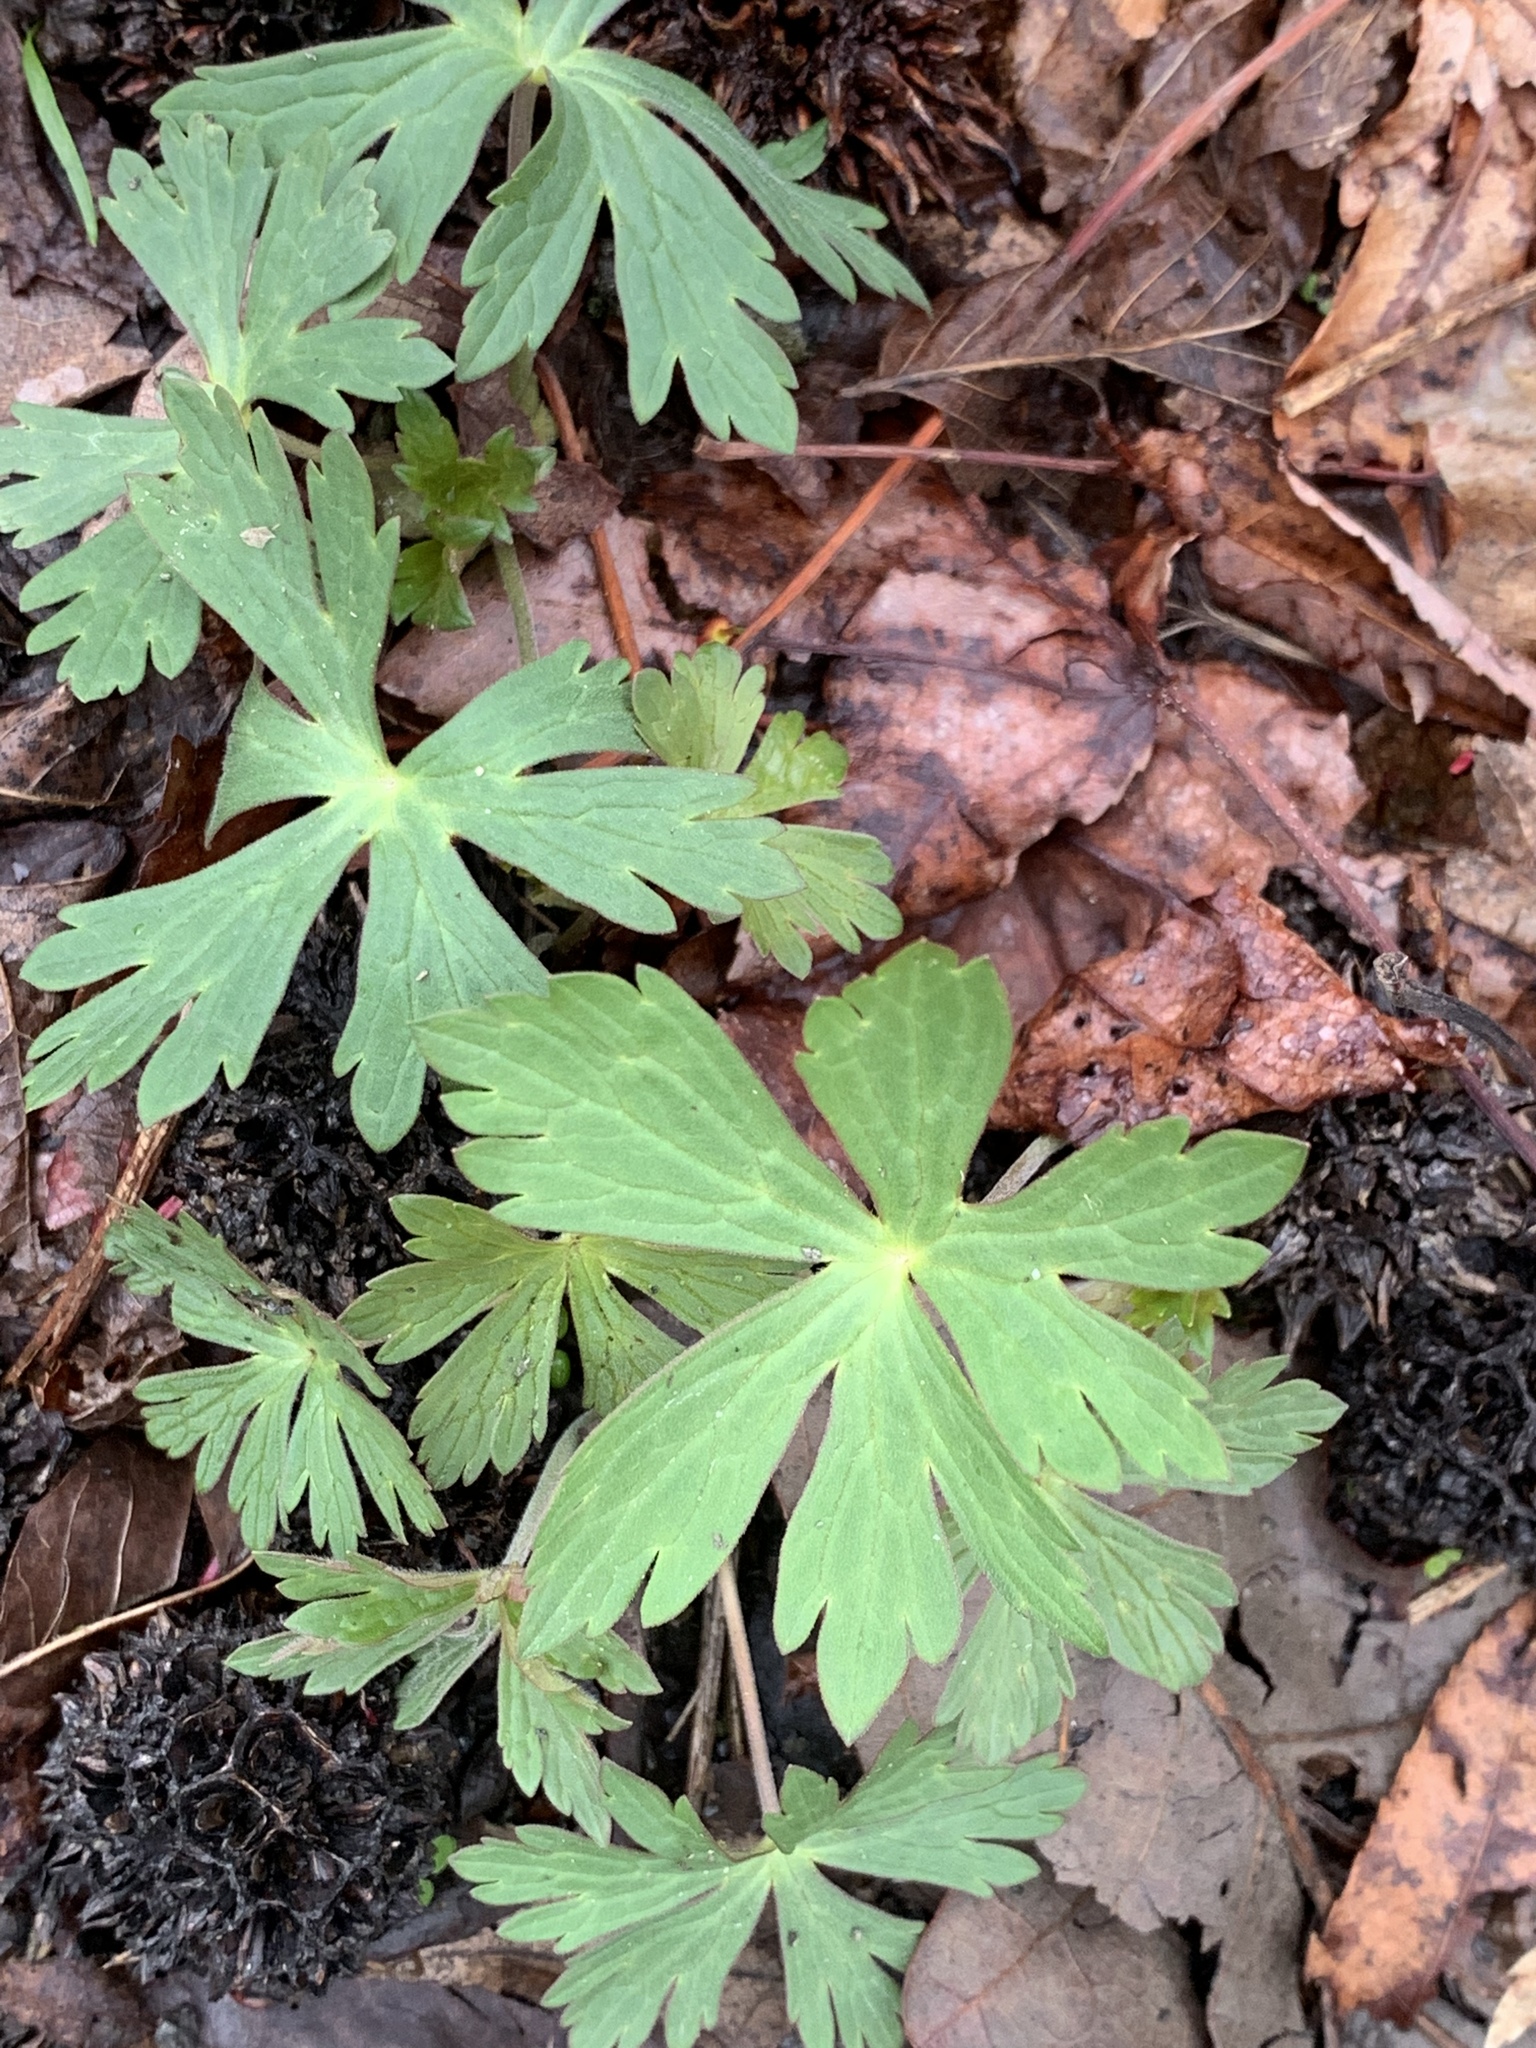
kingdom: Plantae
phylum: Tracheophyta
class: Magnoliopsida
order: Geraniales
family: Geraniaceae
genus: Geranium
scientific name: Geranium maculatum
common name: Spotted geranium
